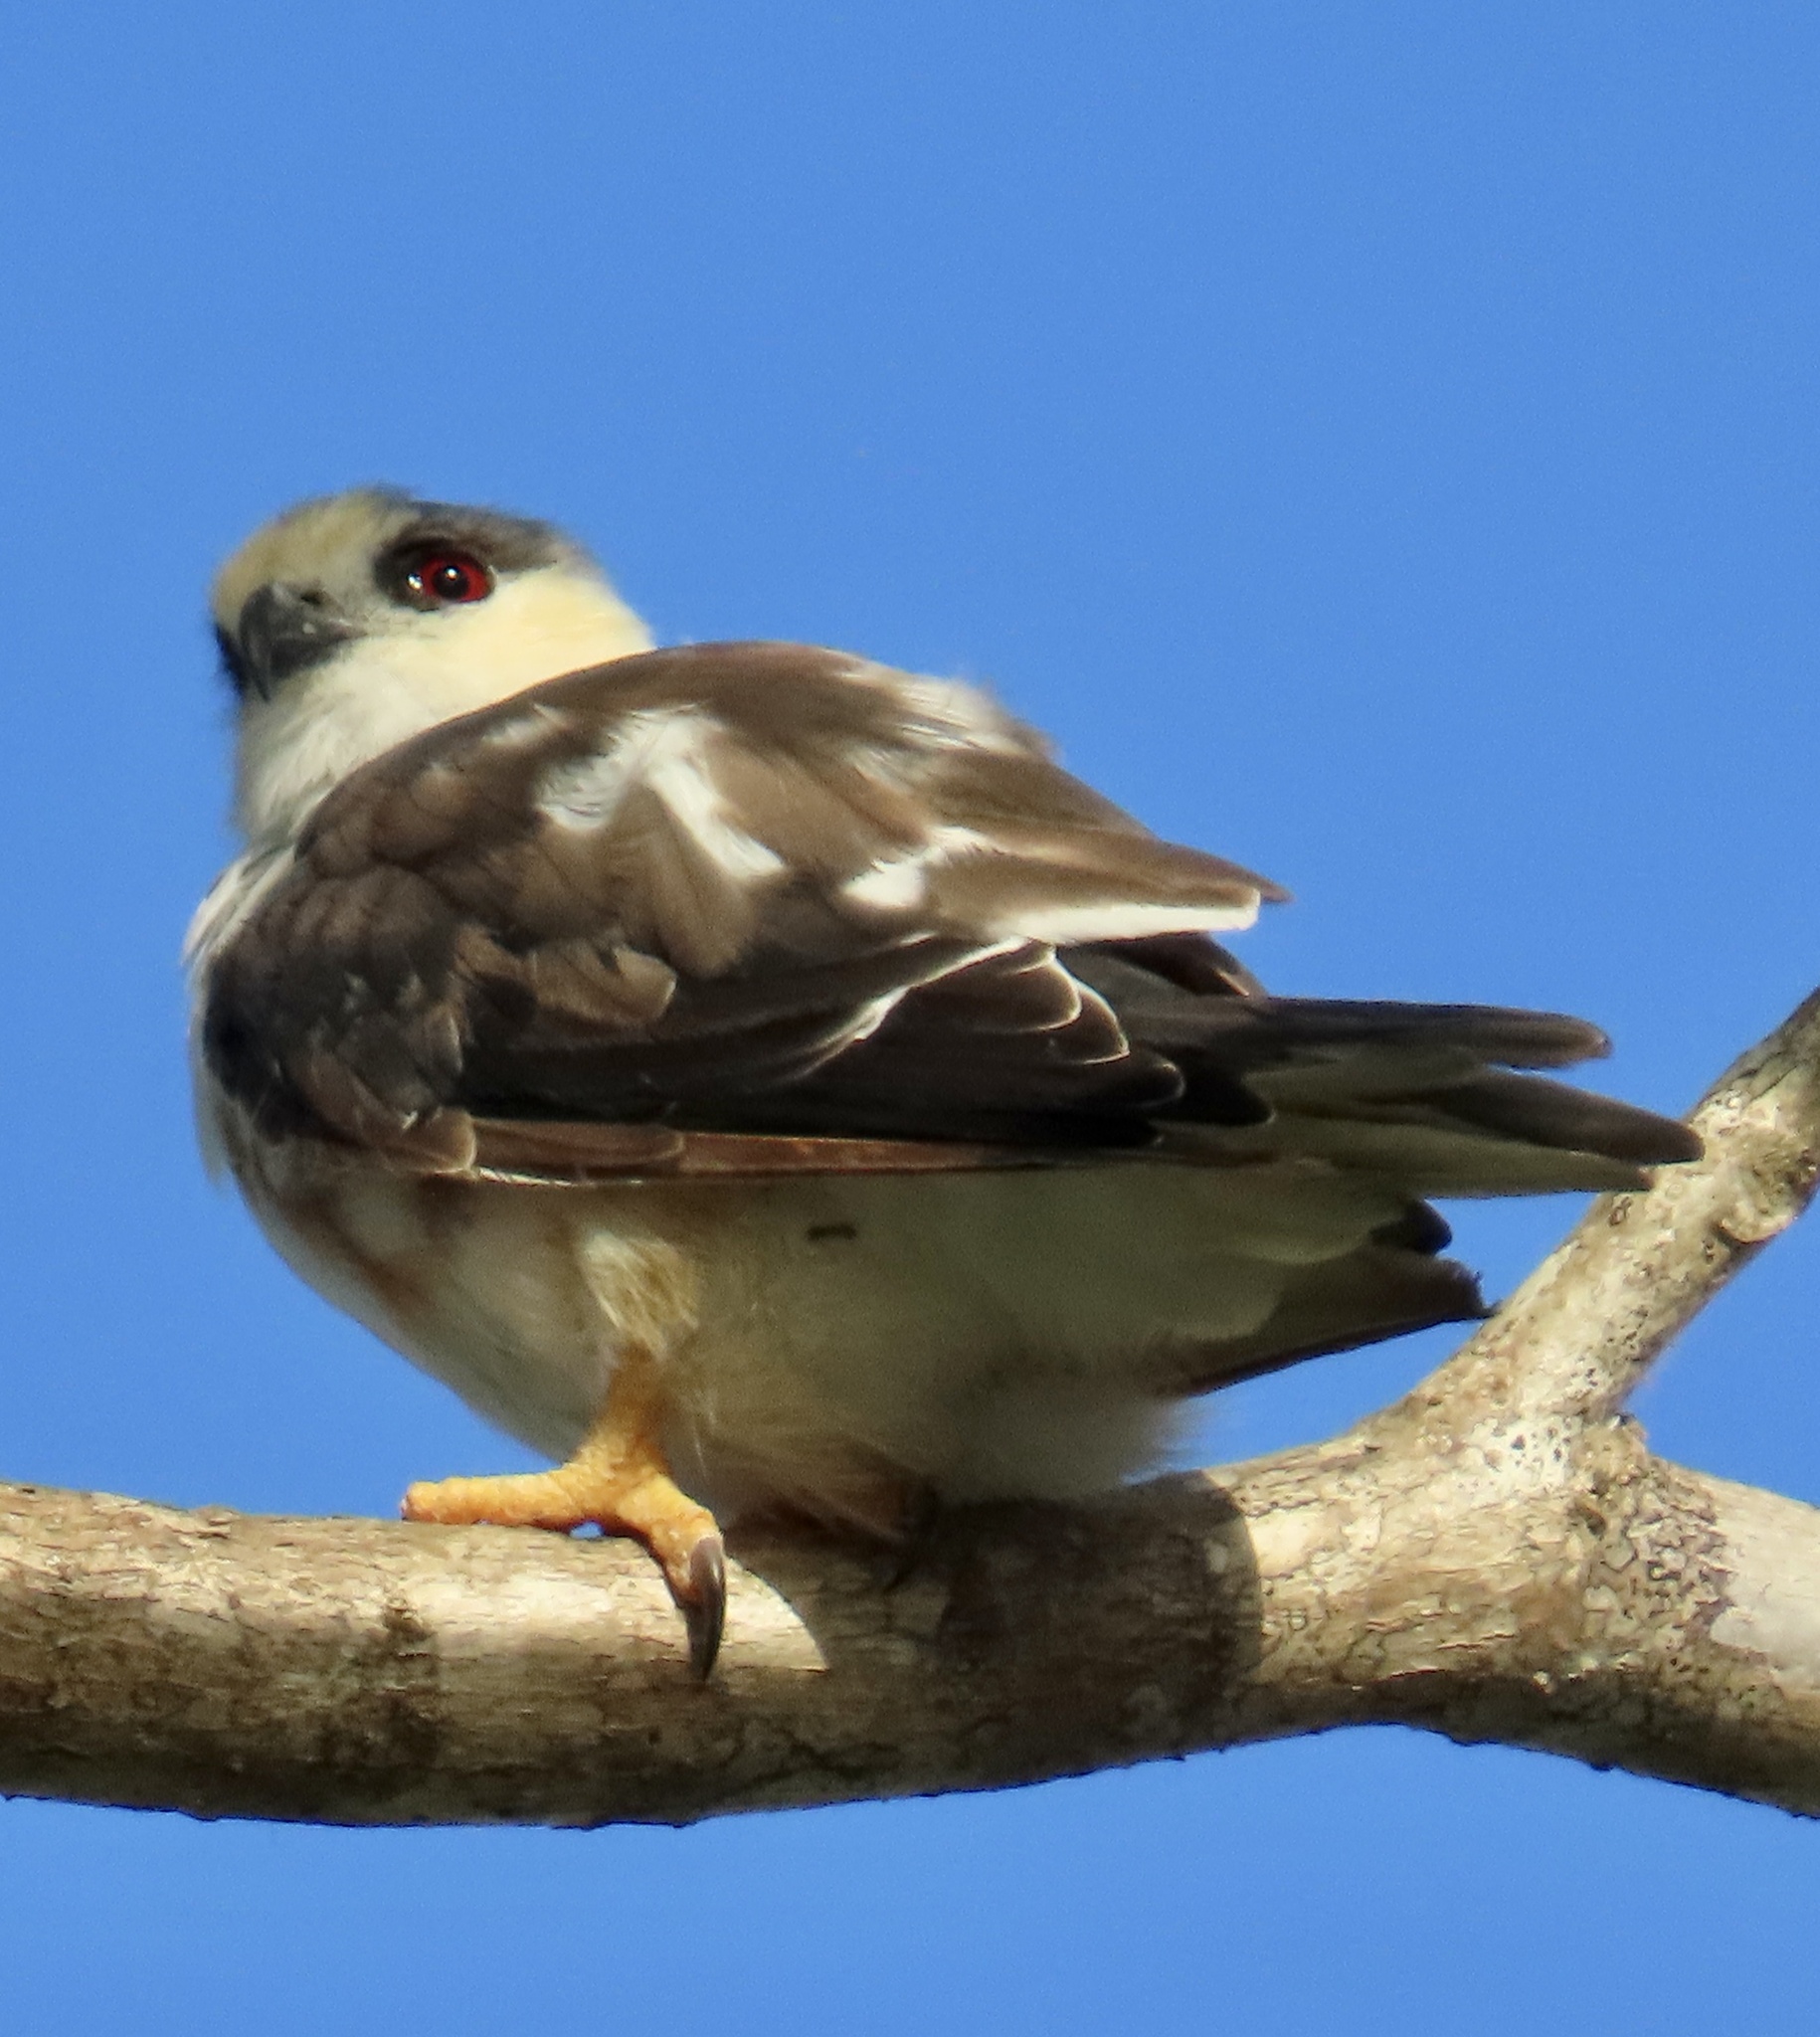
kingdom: Animalia
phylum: Chordata
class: Aves
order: Accipitriformes
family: Accipitridae
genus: Gampsonyx
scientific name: Gampsonyx swainsonii
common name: Pearl kite
